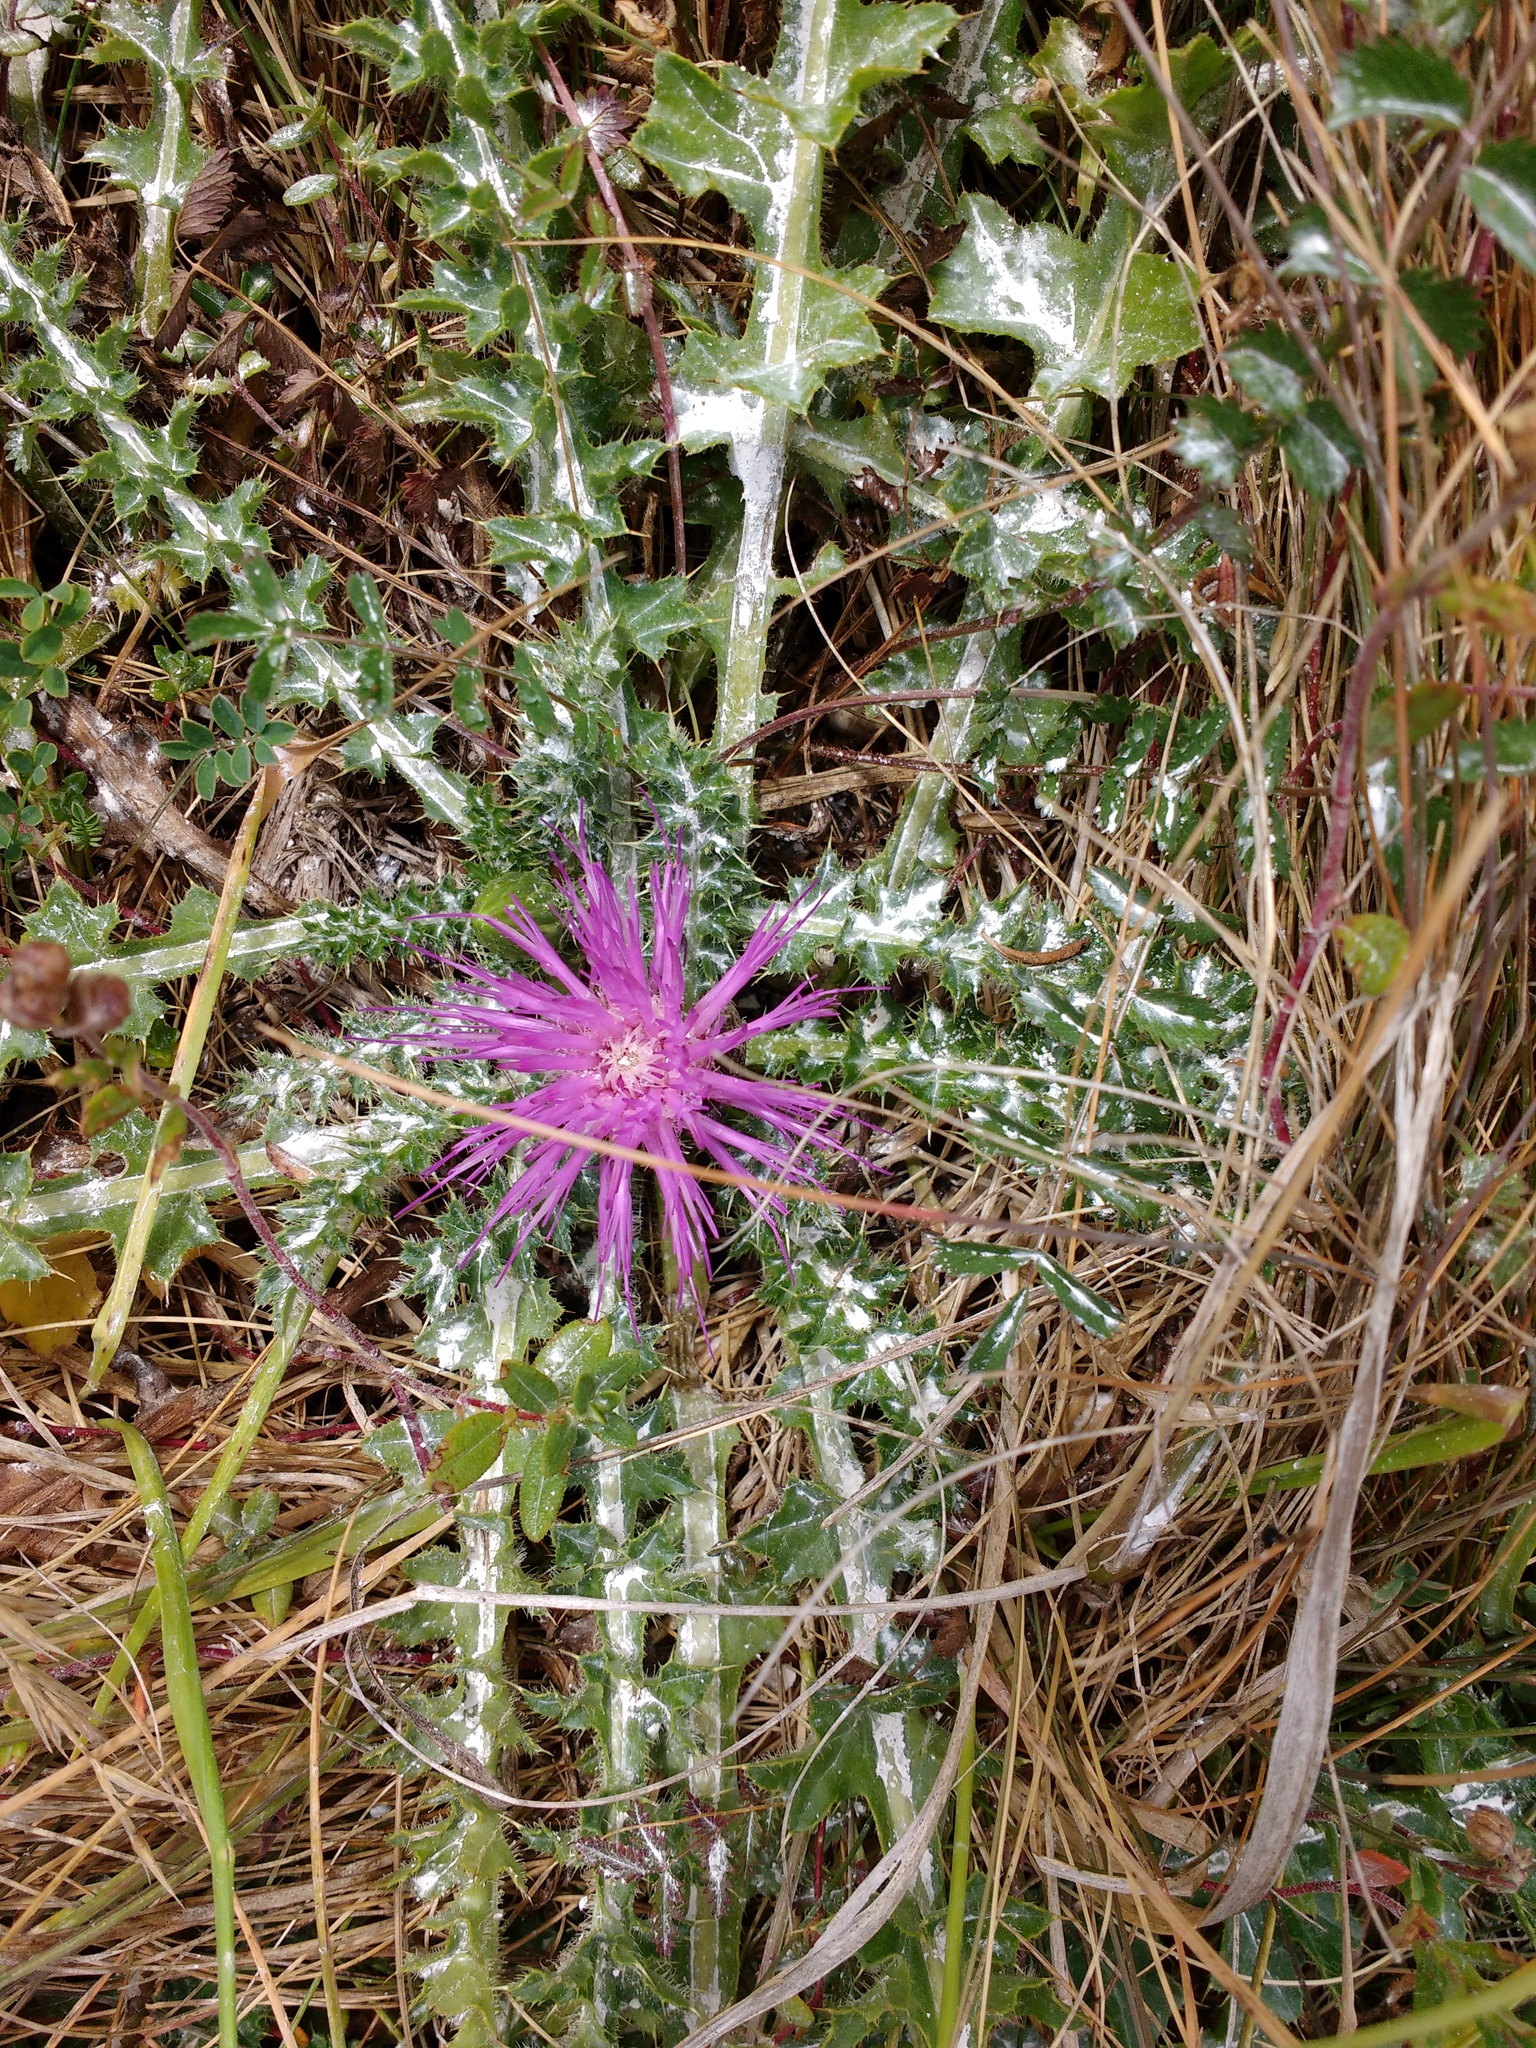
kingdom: Plantae
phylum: Tracheophyta
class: Magnoliopsida
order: Asterales
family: Asteraceae
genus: Cirsium
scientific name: Cirsium acaulon
